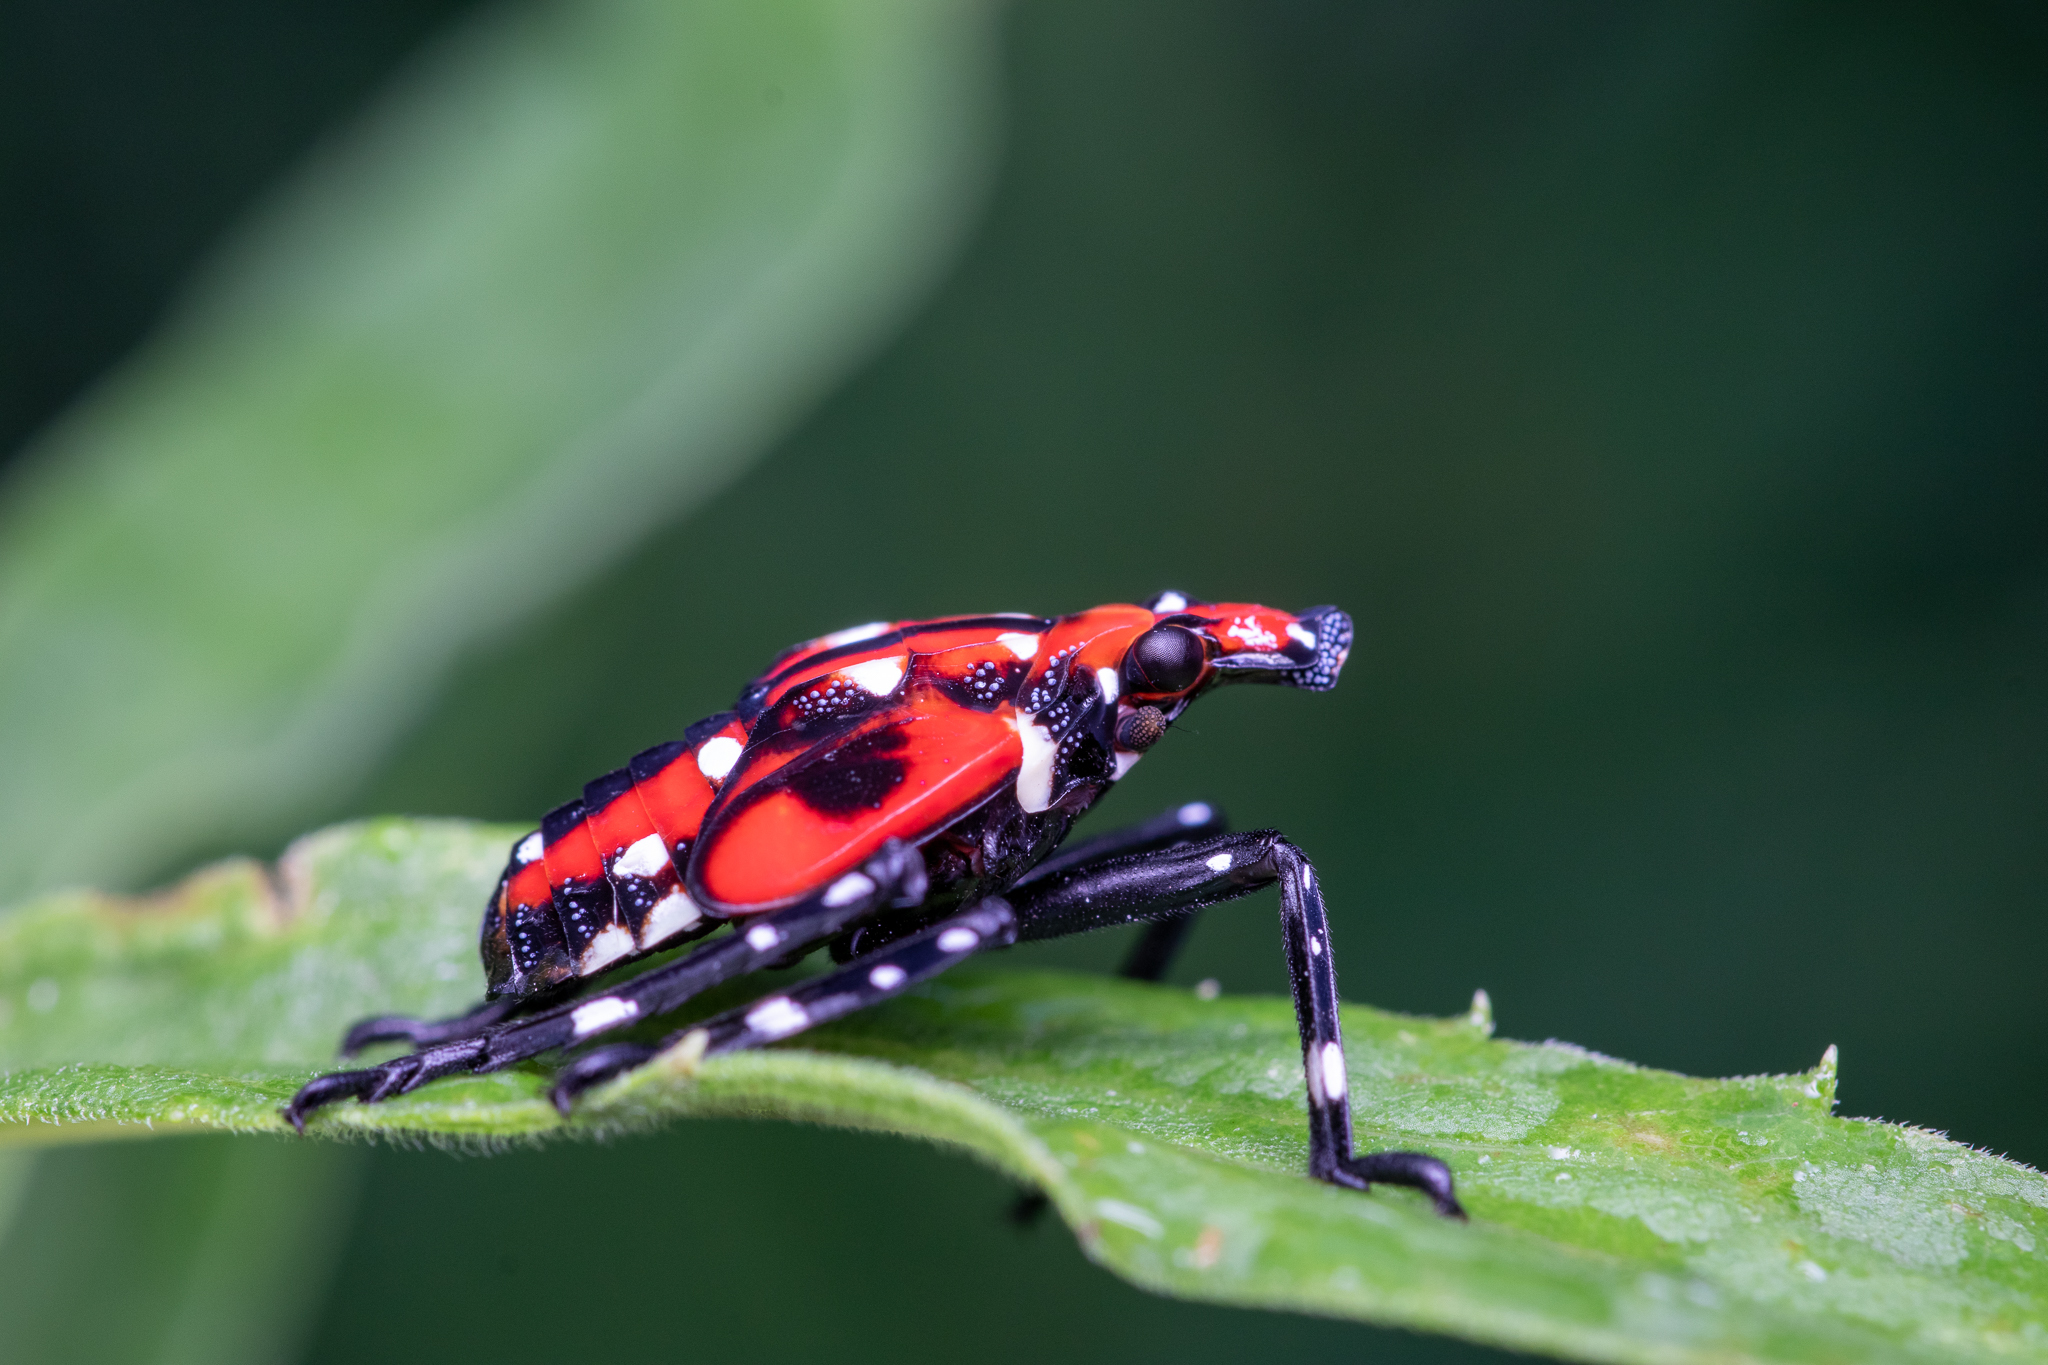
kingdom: Animalia
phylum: Arthropoda
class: Insecta
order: Hemiptera
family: Fulgoridae
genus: Lycorma
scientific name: Lycorma delicatula
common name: Spotted lanternfly
